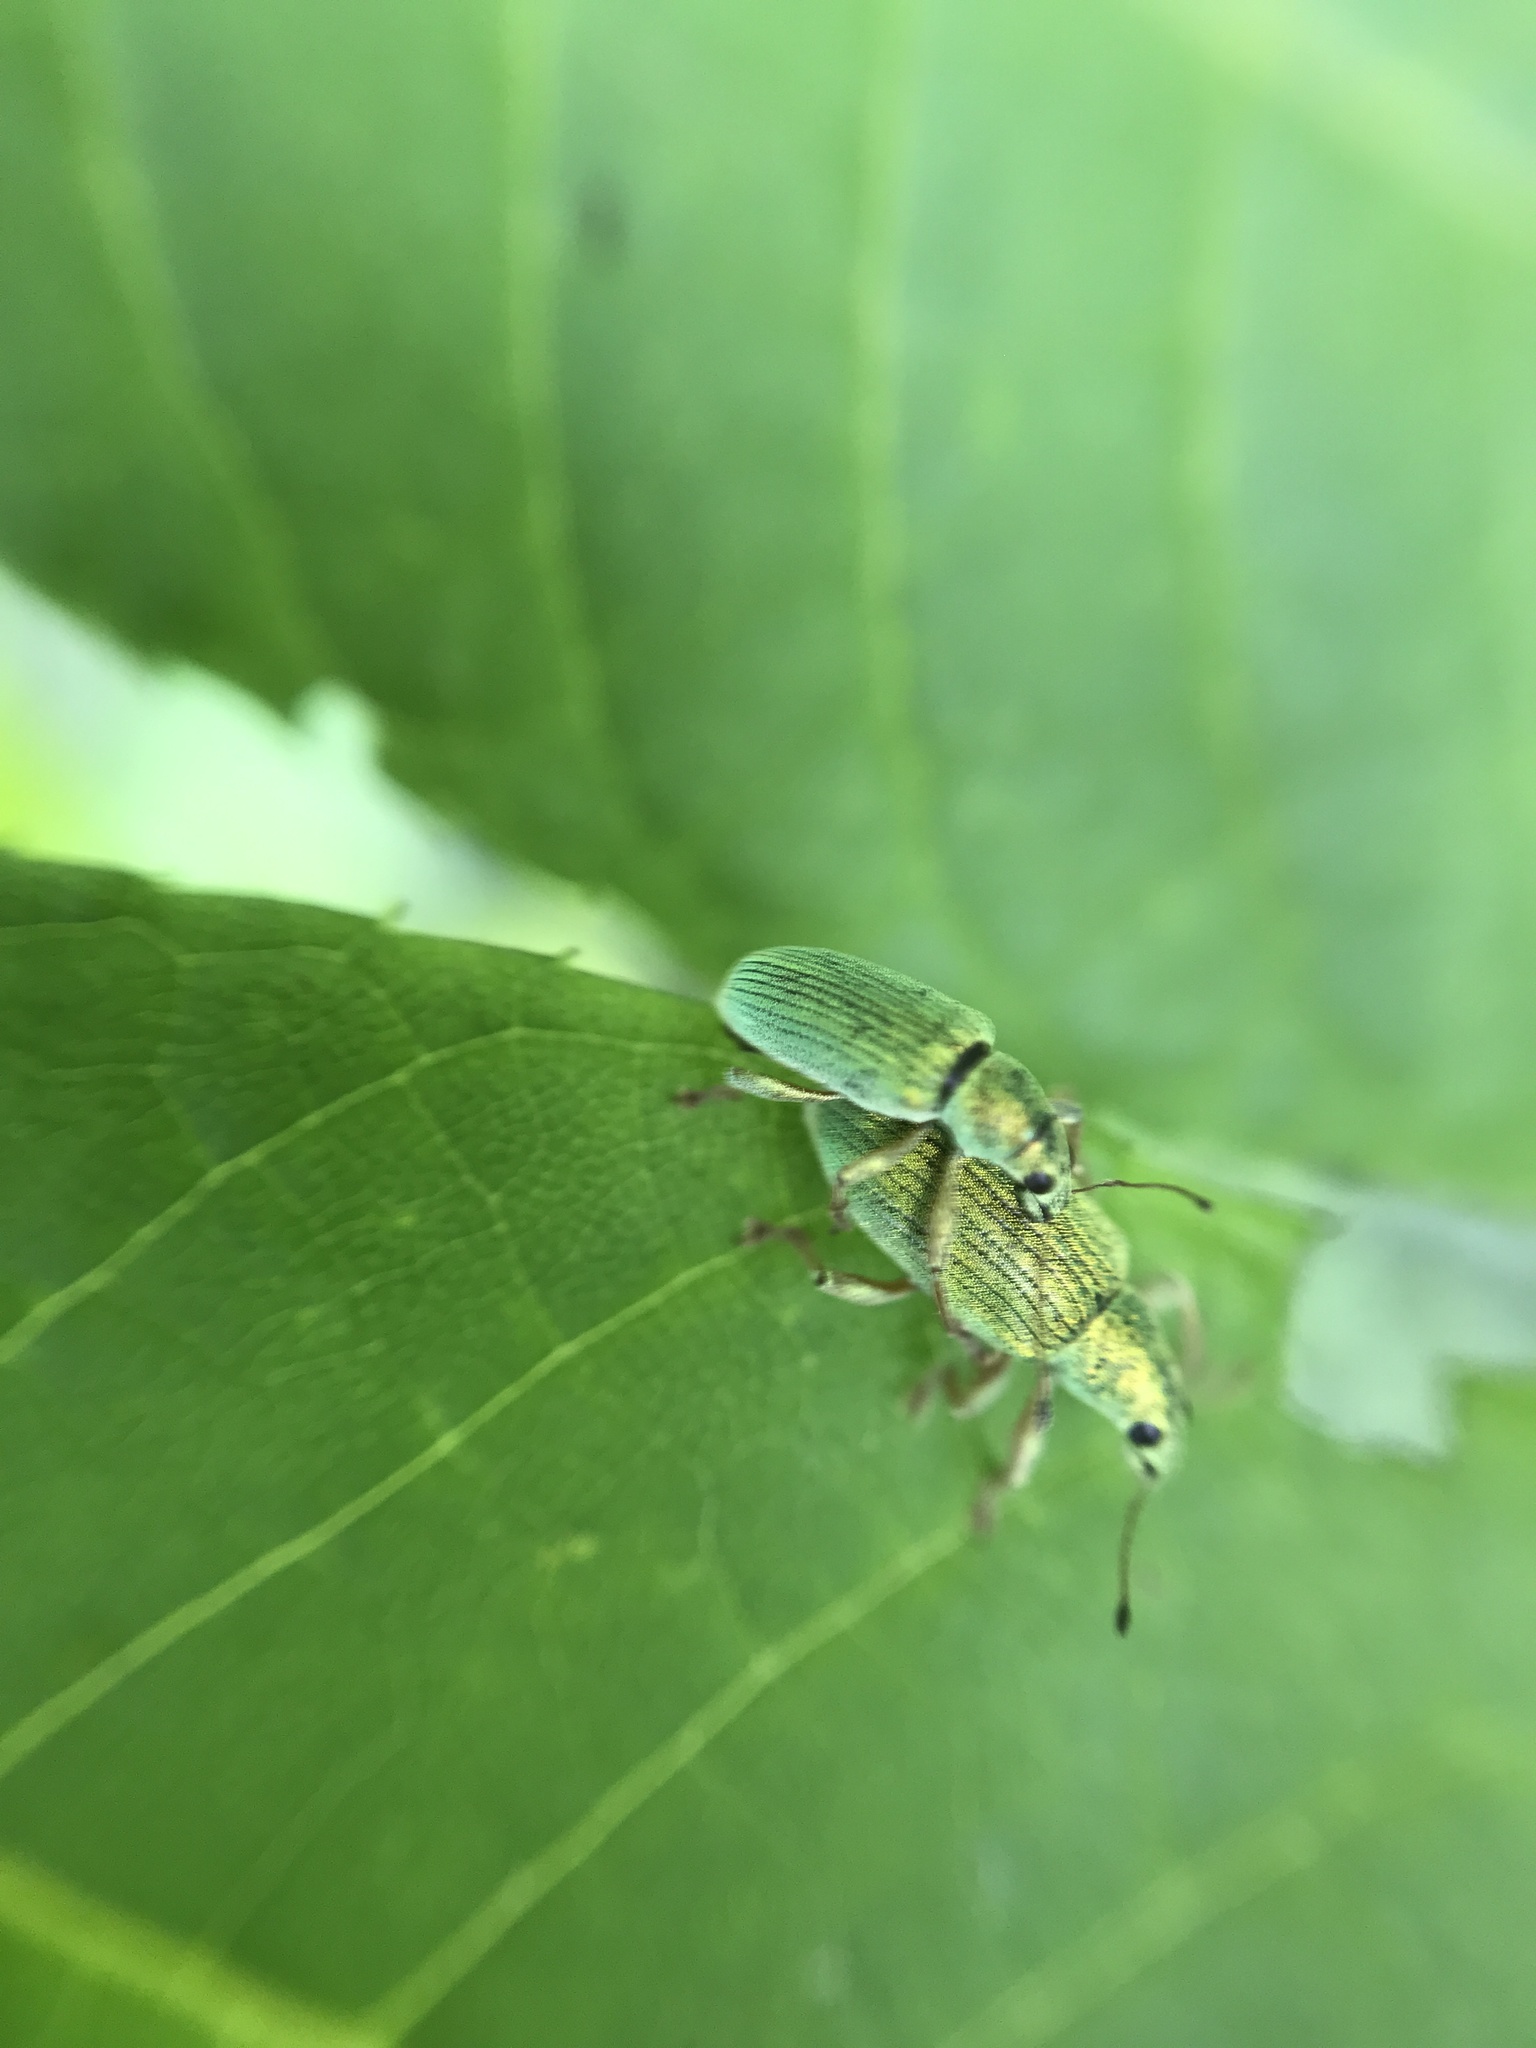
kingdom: Animalia
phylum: Arthropoda
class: Insecta
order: Coleoptera
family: Curculionidae
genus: Polydrusus
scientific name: Polydrusus formosus
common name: Weevil
